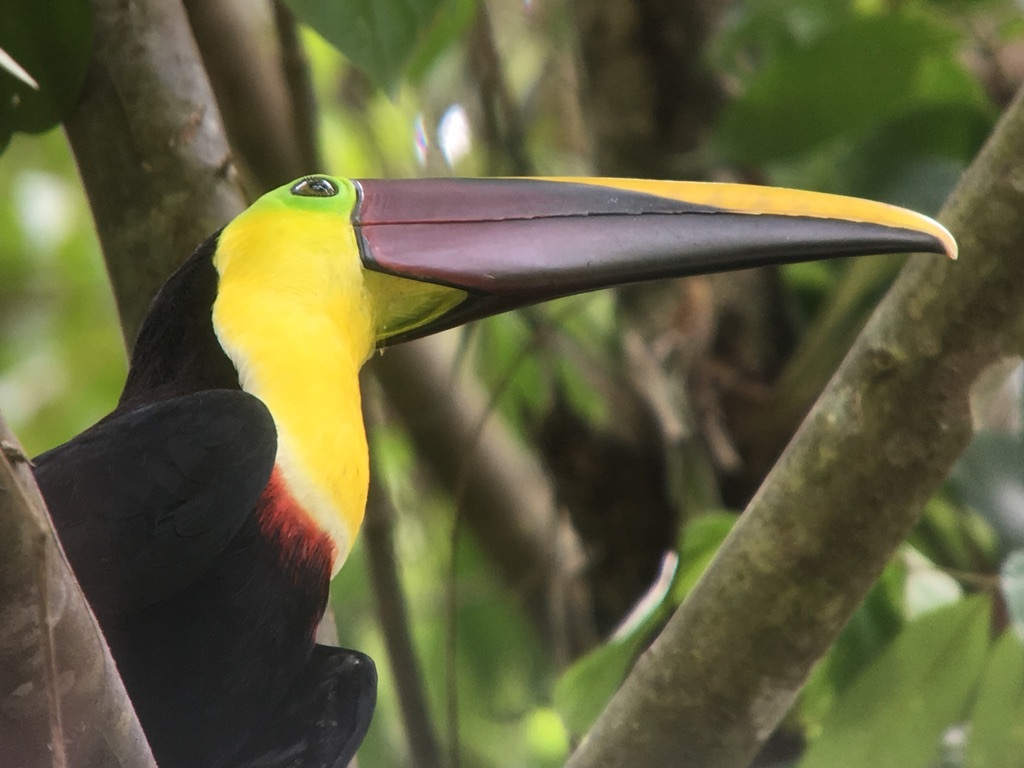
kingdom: Animalia
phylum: Chordata
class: Aves
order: Piciformes
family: Ramphastidae
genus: Ramphastos
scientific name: Ramphastos ambiguus
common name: Yellow-throated toucan
